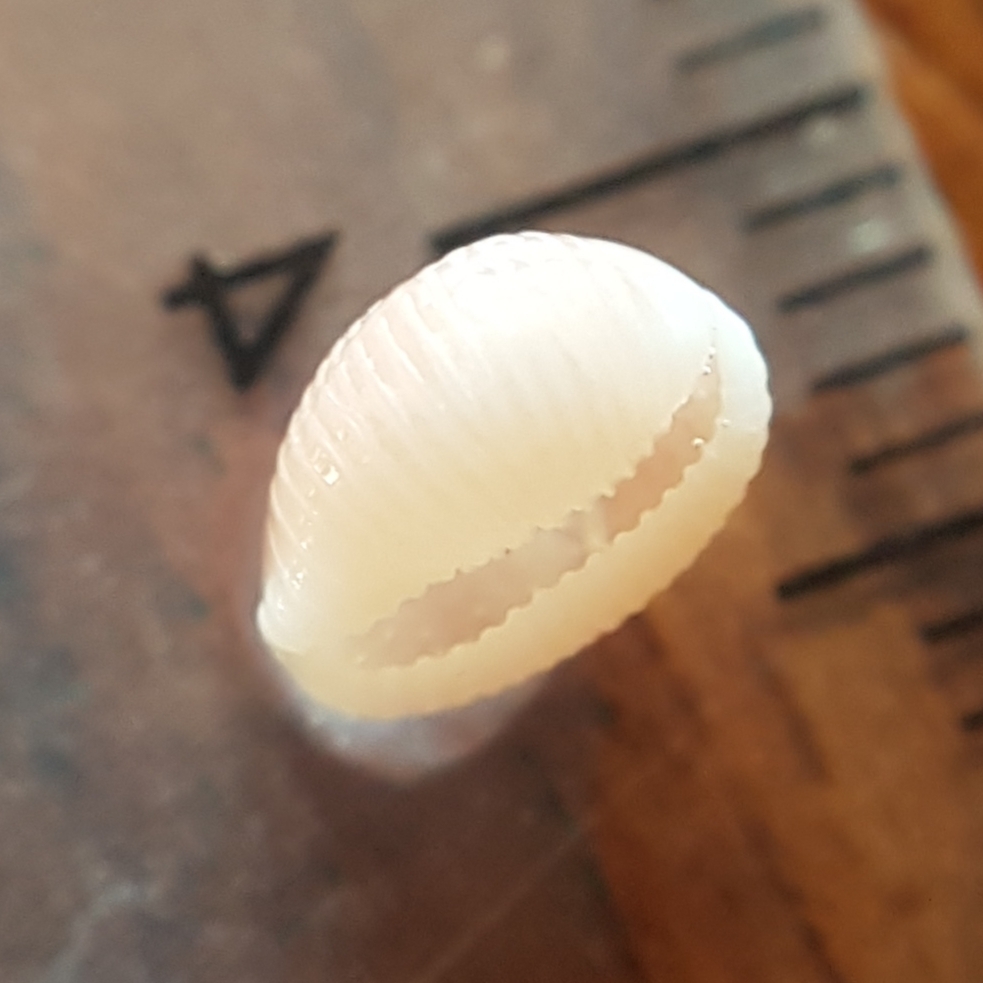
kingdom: Animalia
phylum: Mollusca
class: Gastropoda
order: Littorinimorpha
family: Triviidae
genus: Trivia
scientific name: Trivia mediterranea
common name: Mediterranean trivia
